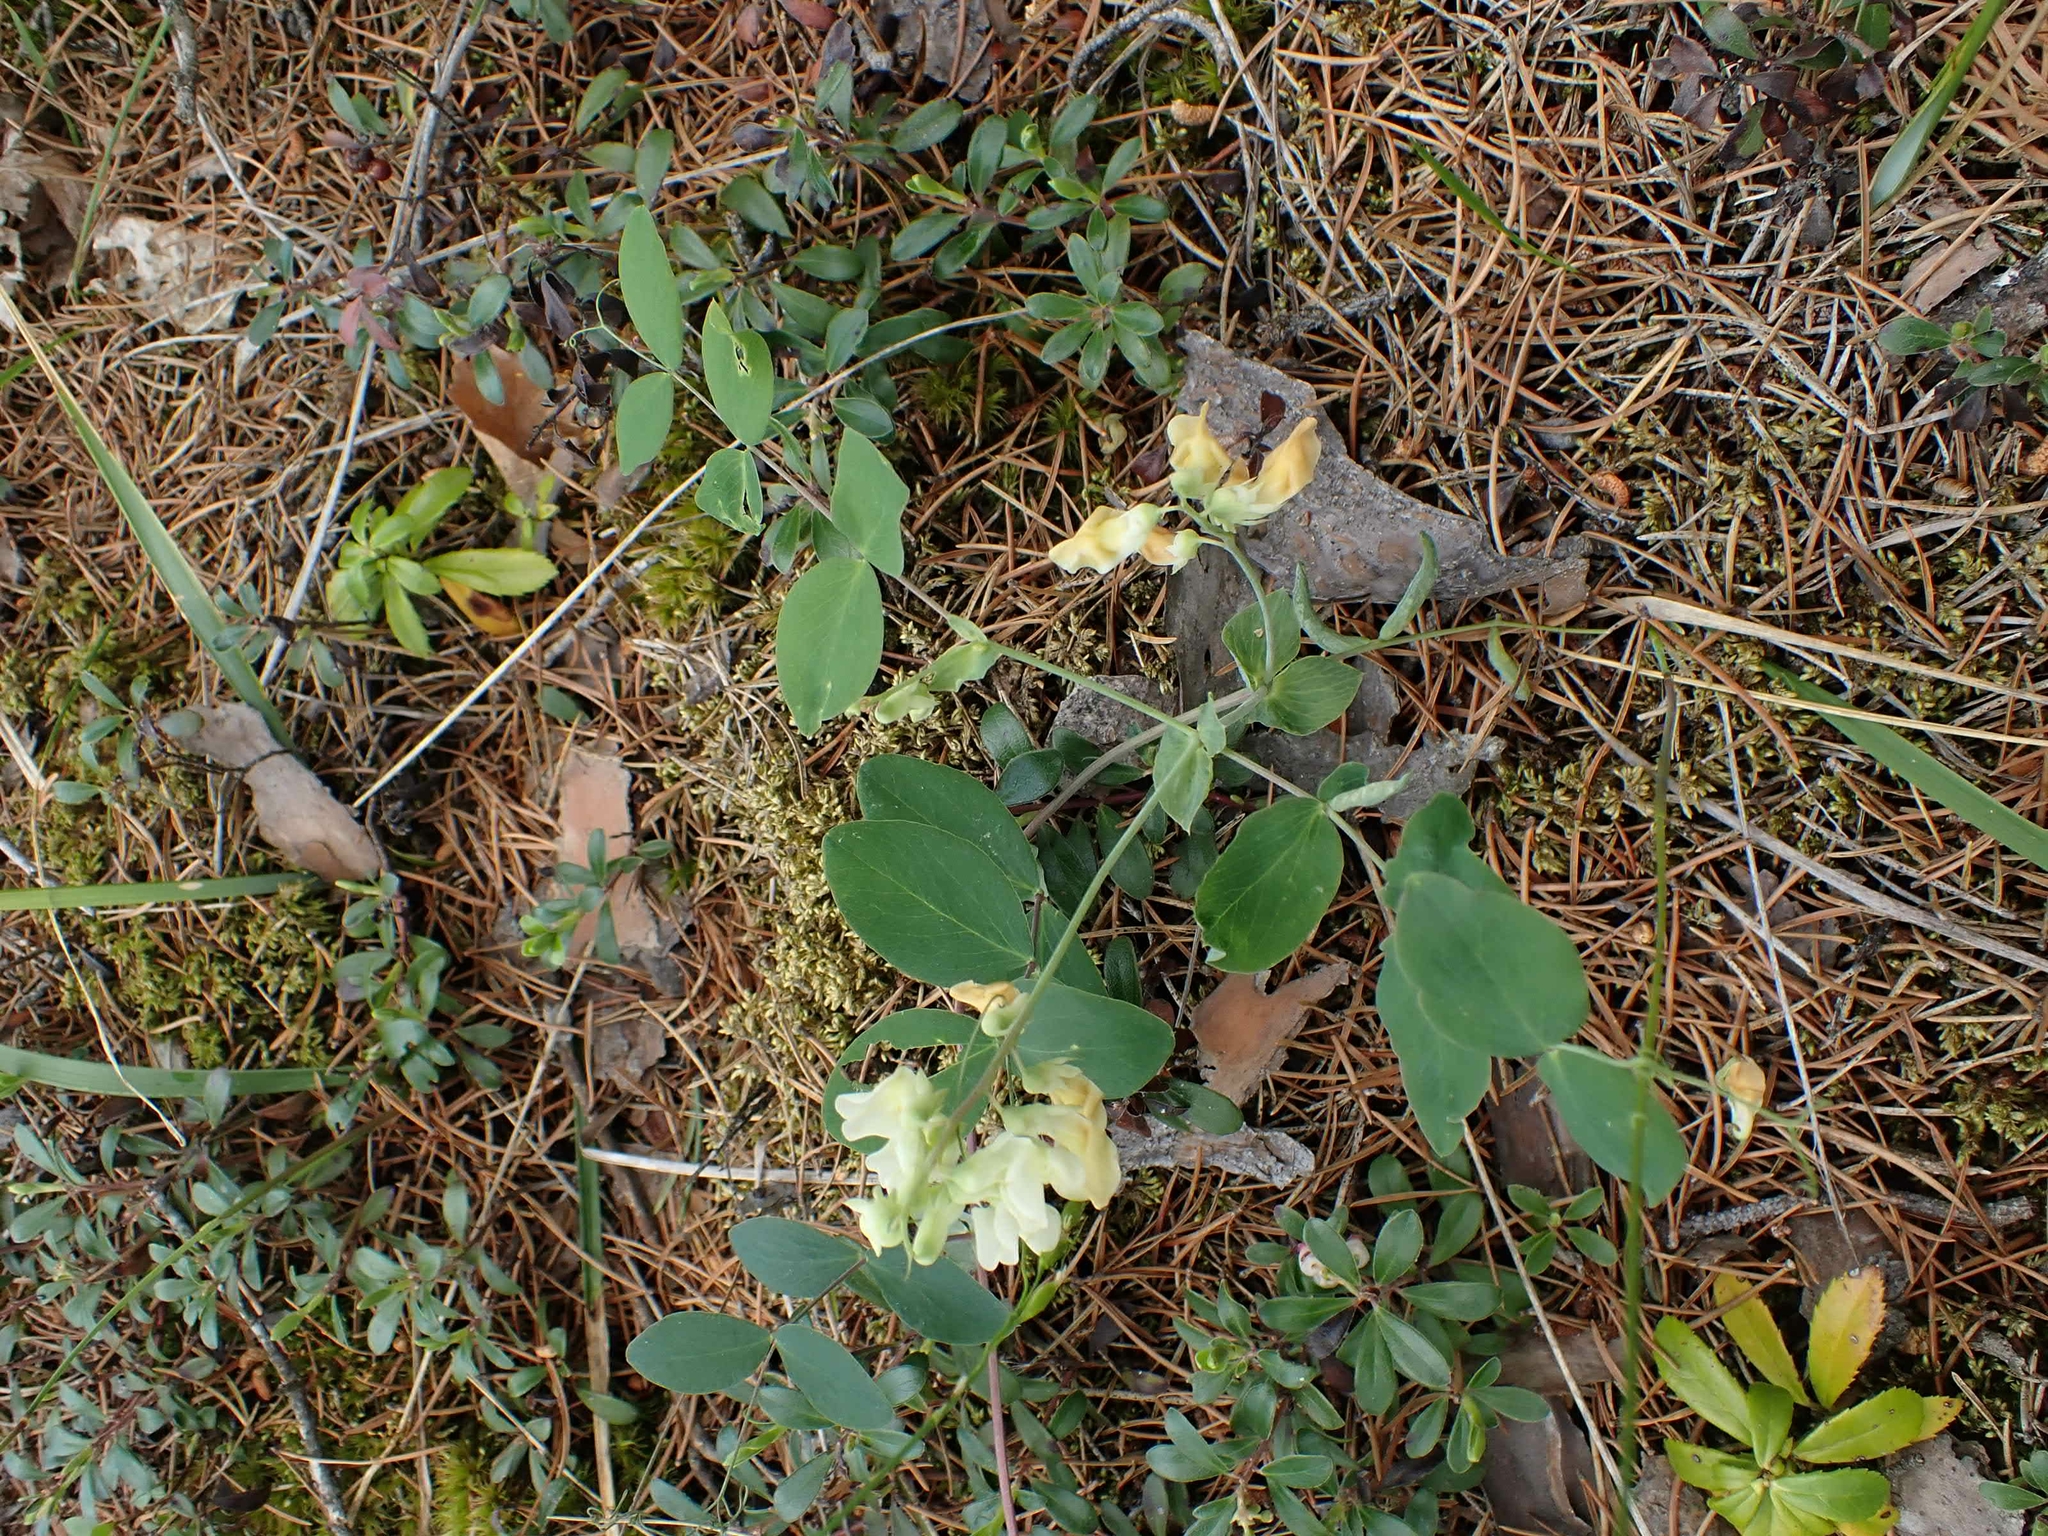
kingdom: Plantae
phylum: Tracheophyta
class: Magnoliopsida
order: Fabales
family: Fabaceae
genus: Lathyrus
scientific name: Lathyrus ochroleucus
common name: Pale vetchling
